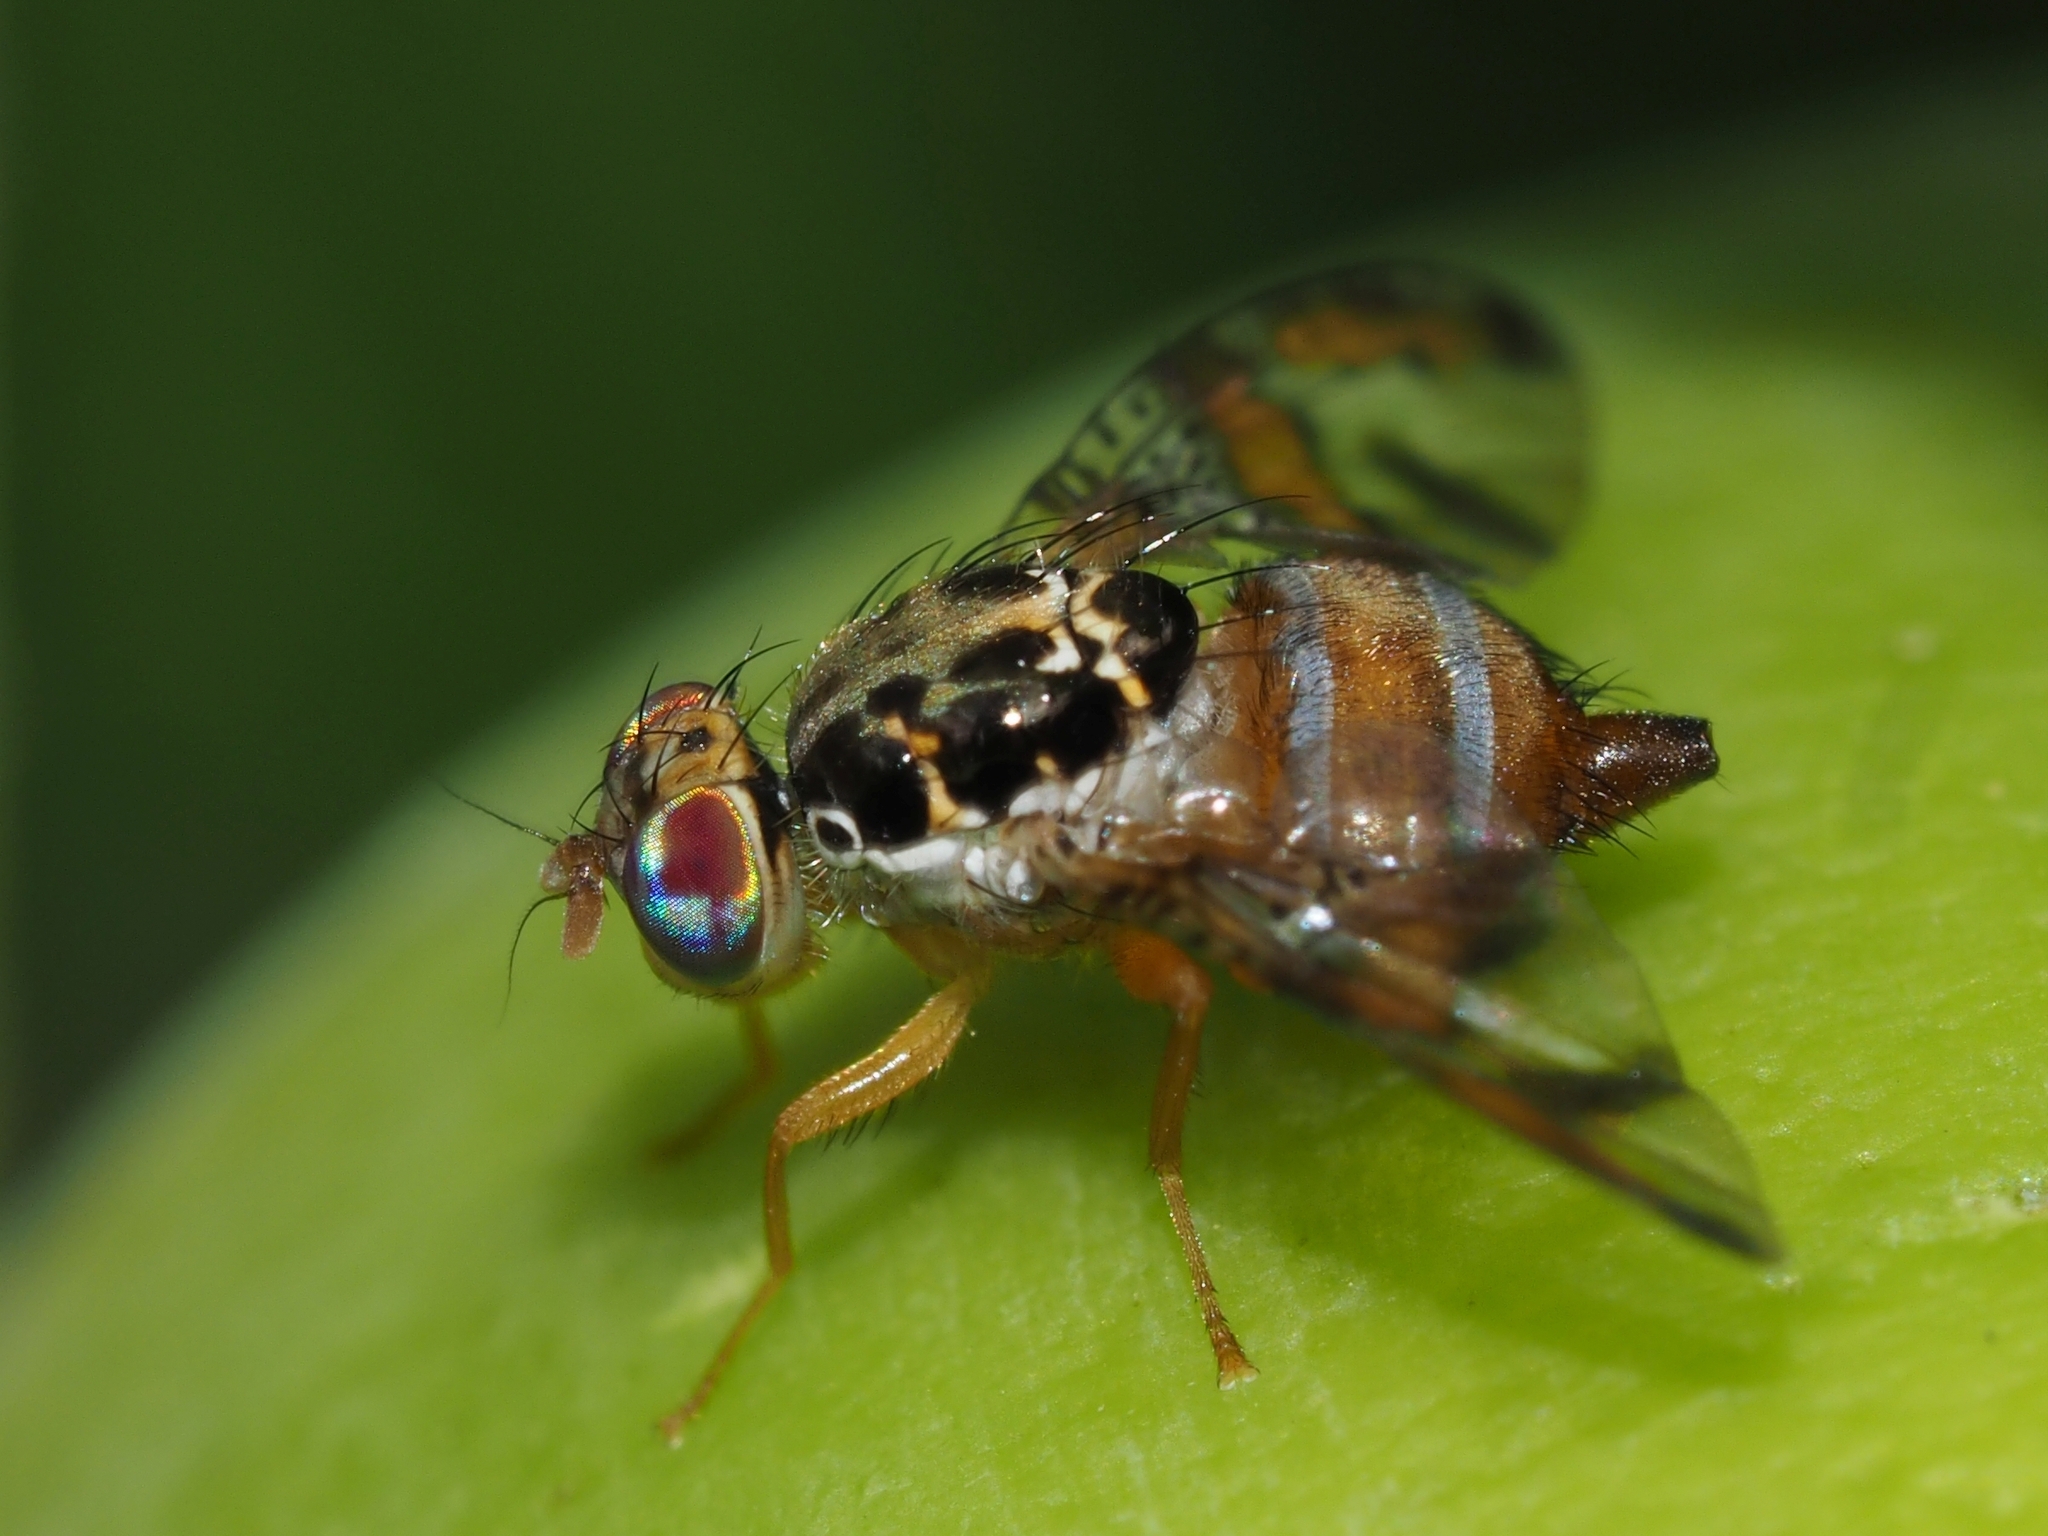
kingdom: Animalia
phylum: Arthropoda
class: Insecta
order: Diptera
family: Tephritidae
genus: Ceratitis
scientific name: Ceratitis capitata
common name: Mediterranean fruit fly
